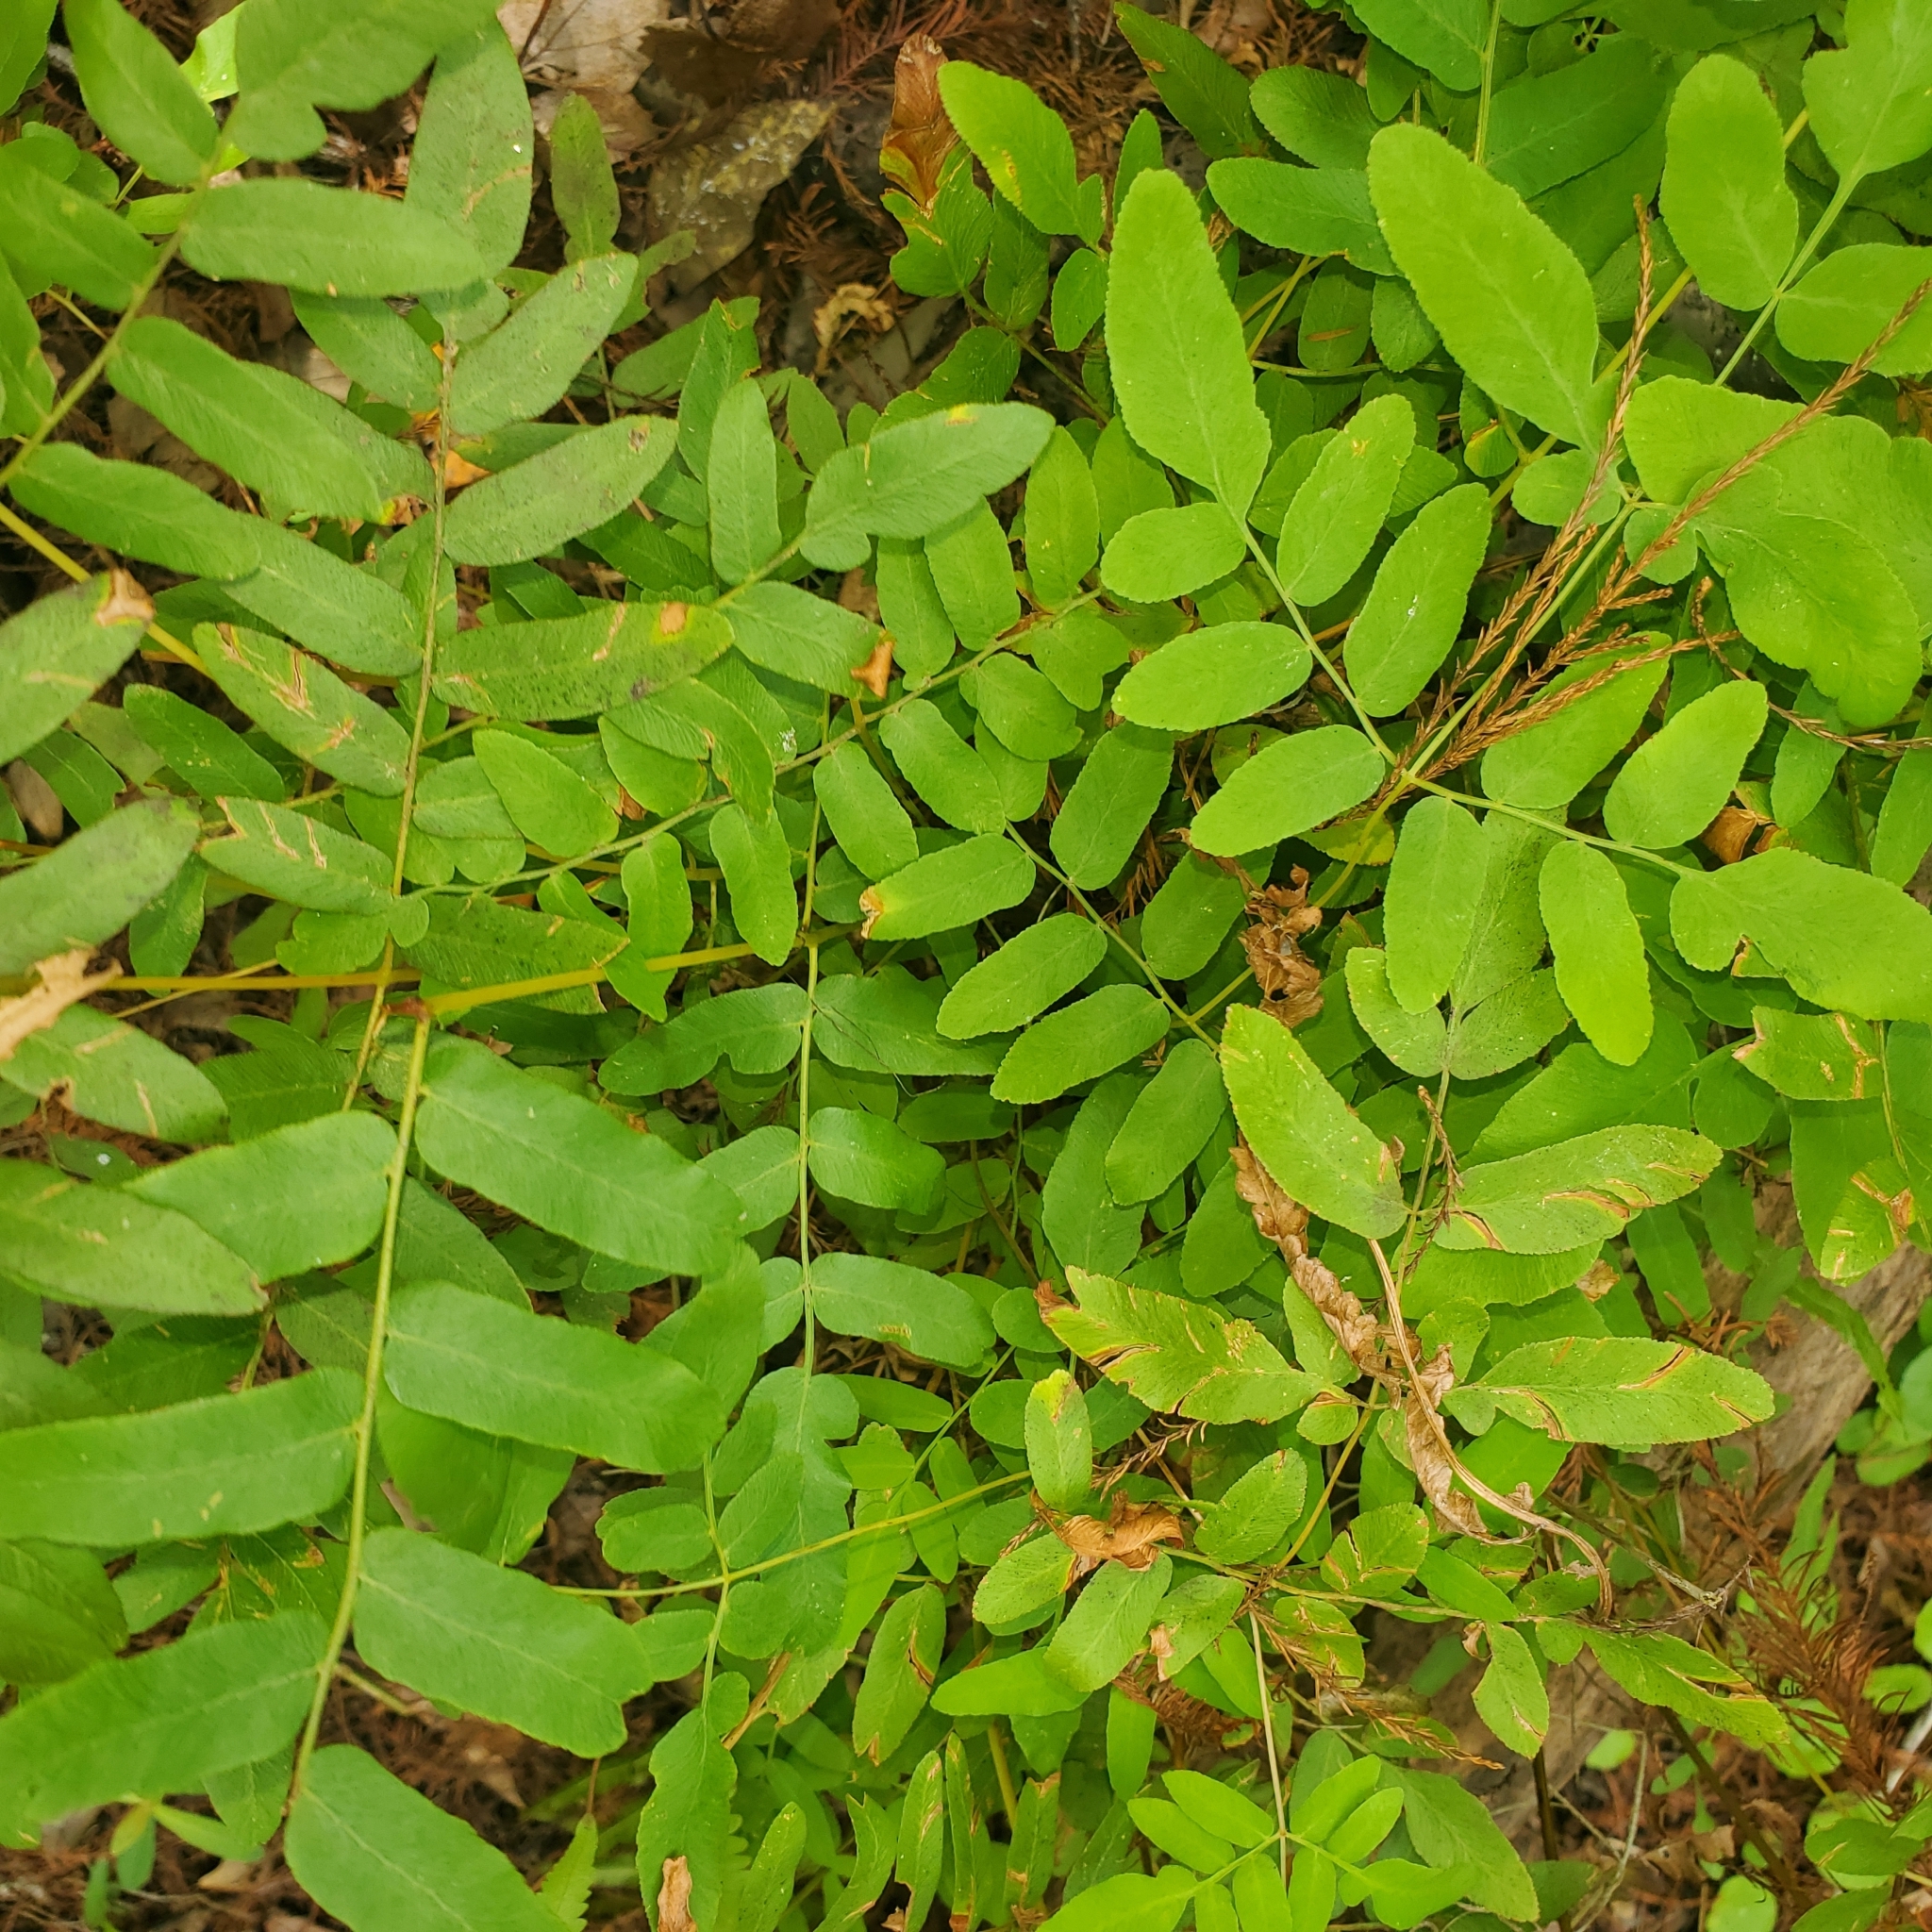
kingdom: Plantae
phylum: Tracheophyta
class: Polypodiopsida
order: Osmundales
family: Osmundaceae
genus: Osmunda
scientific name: Osmunda spectabilis
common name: American royal fern
